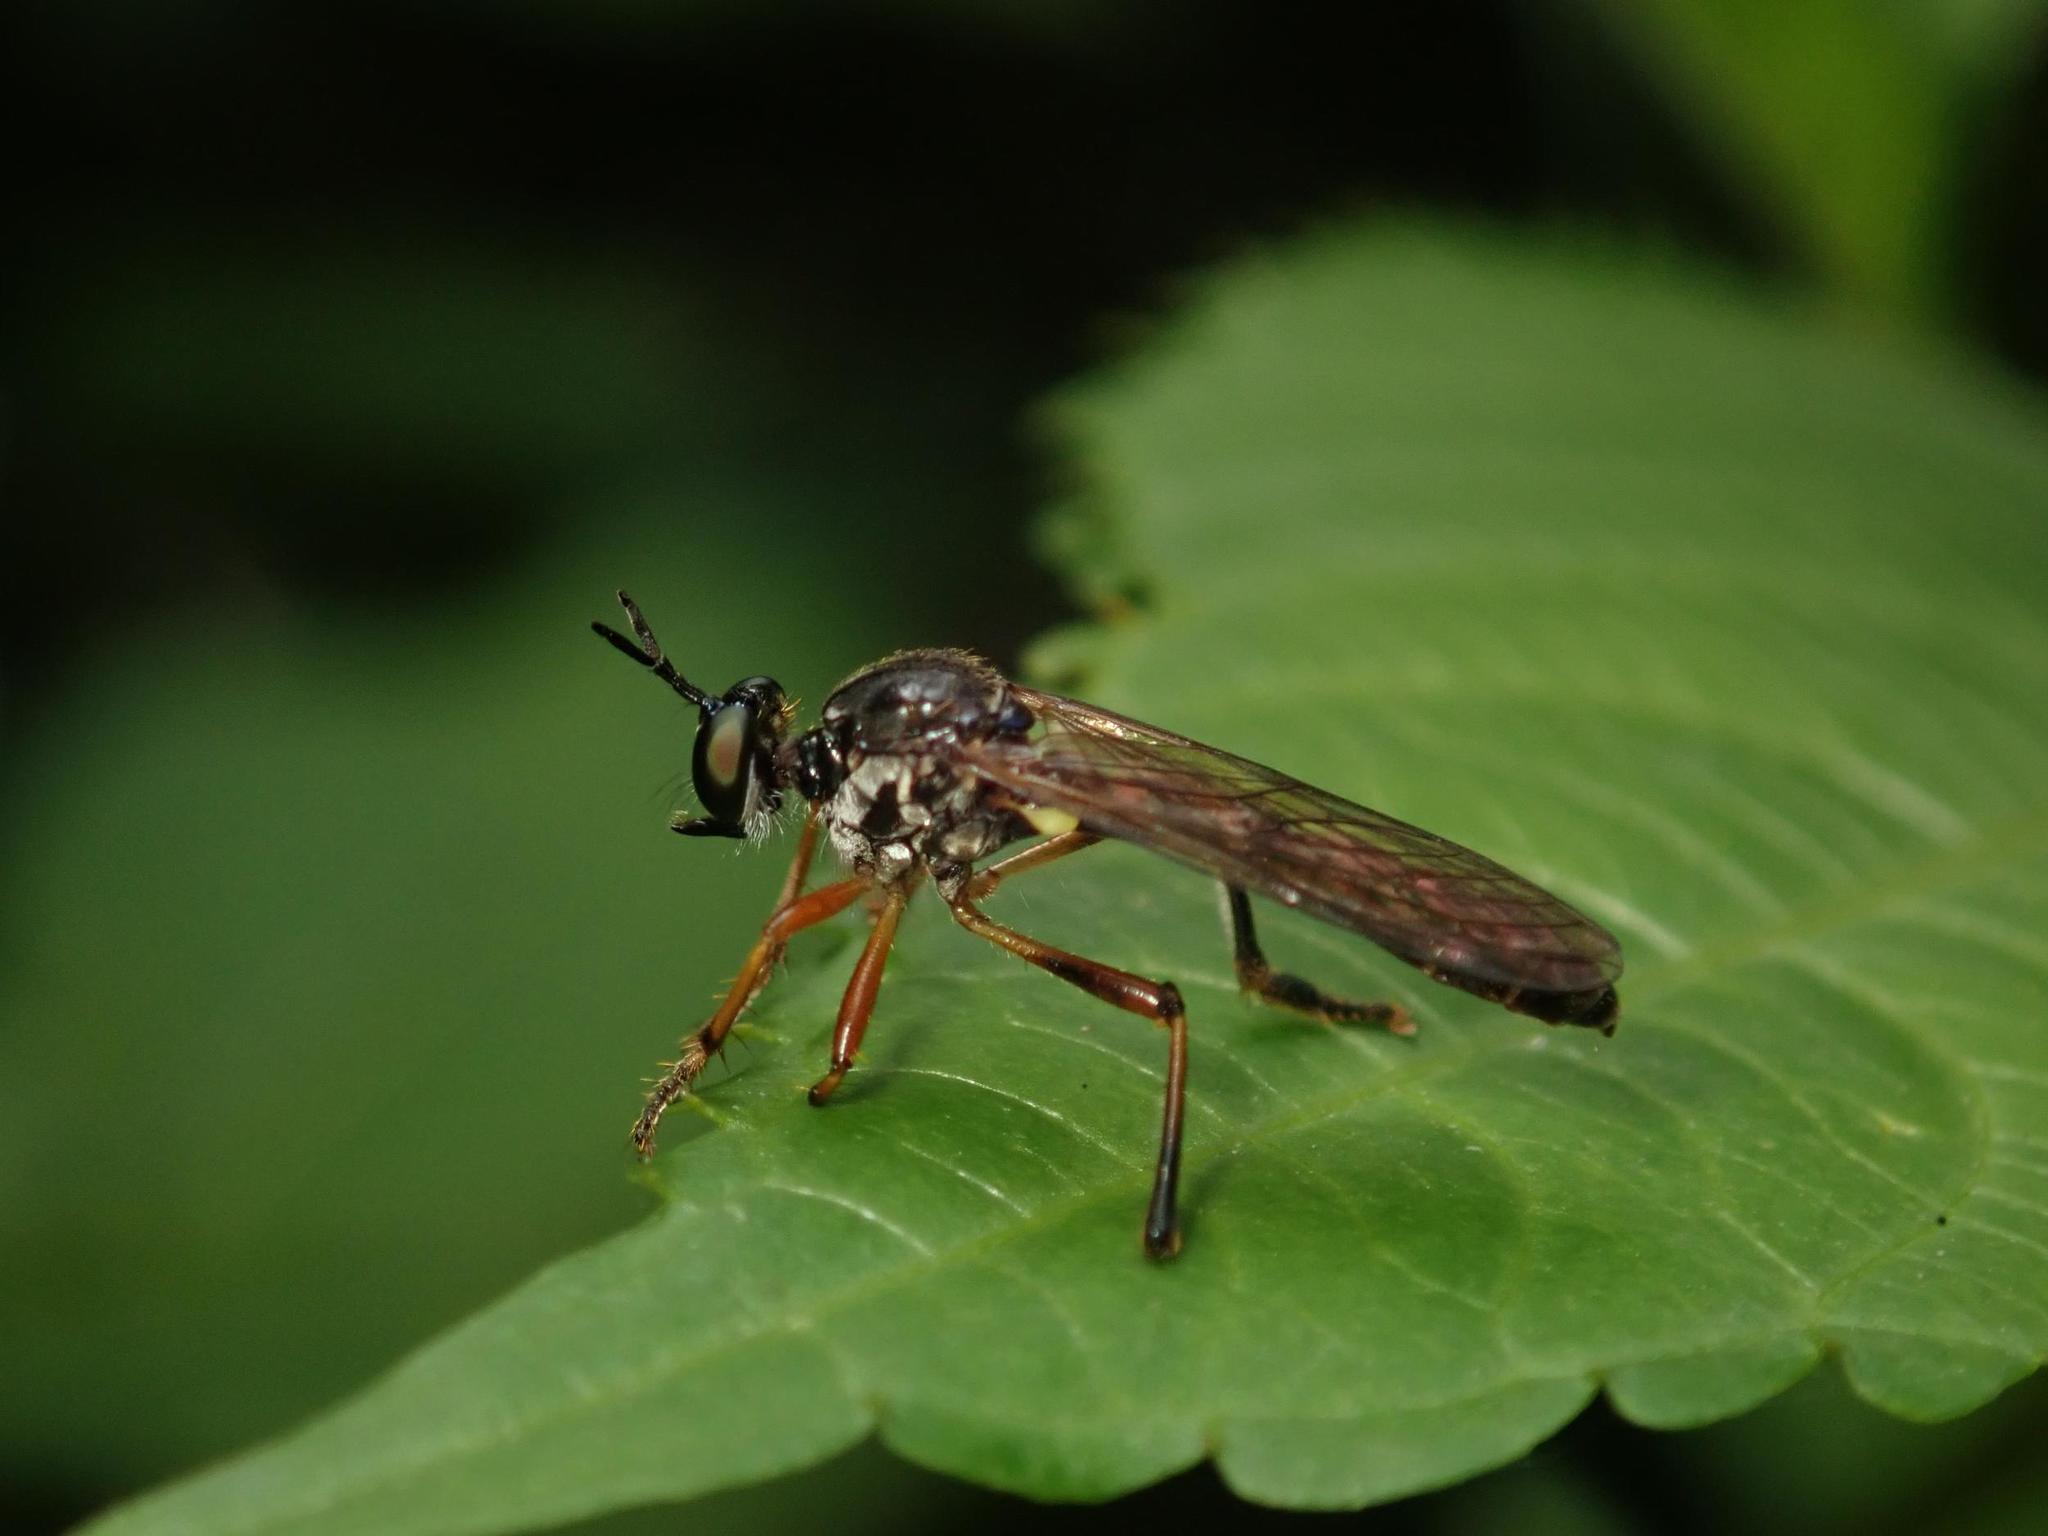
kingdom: Animalia
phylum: Arthropoda
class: Insecta
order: Diptera
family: Asilidae
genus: Dioctria
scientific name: Dioctria hyalipennis
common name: Stripe-legged robberfly
